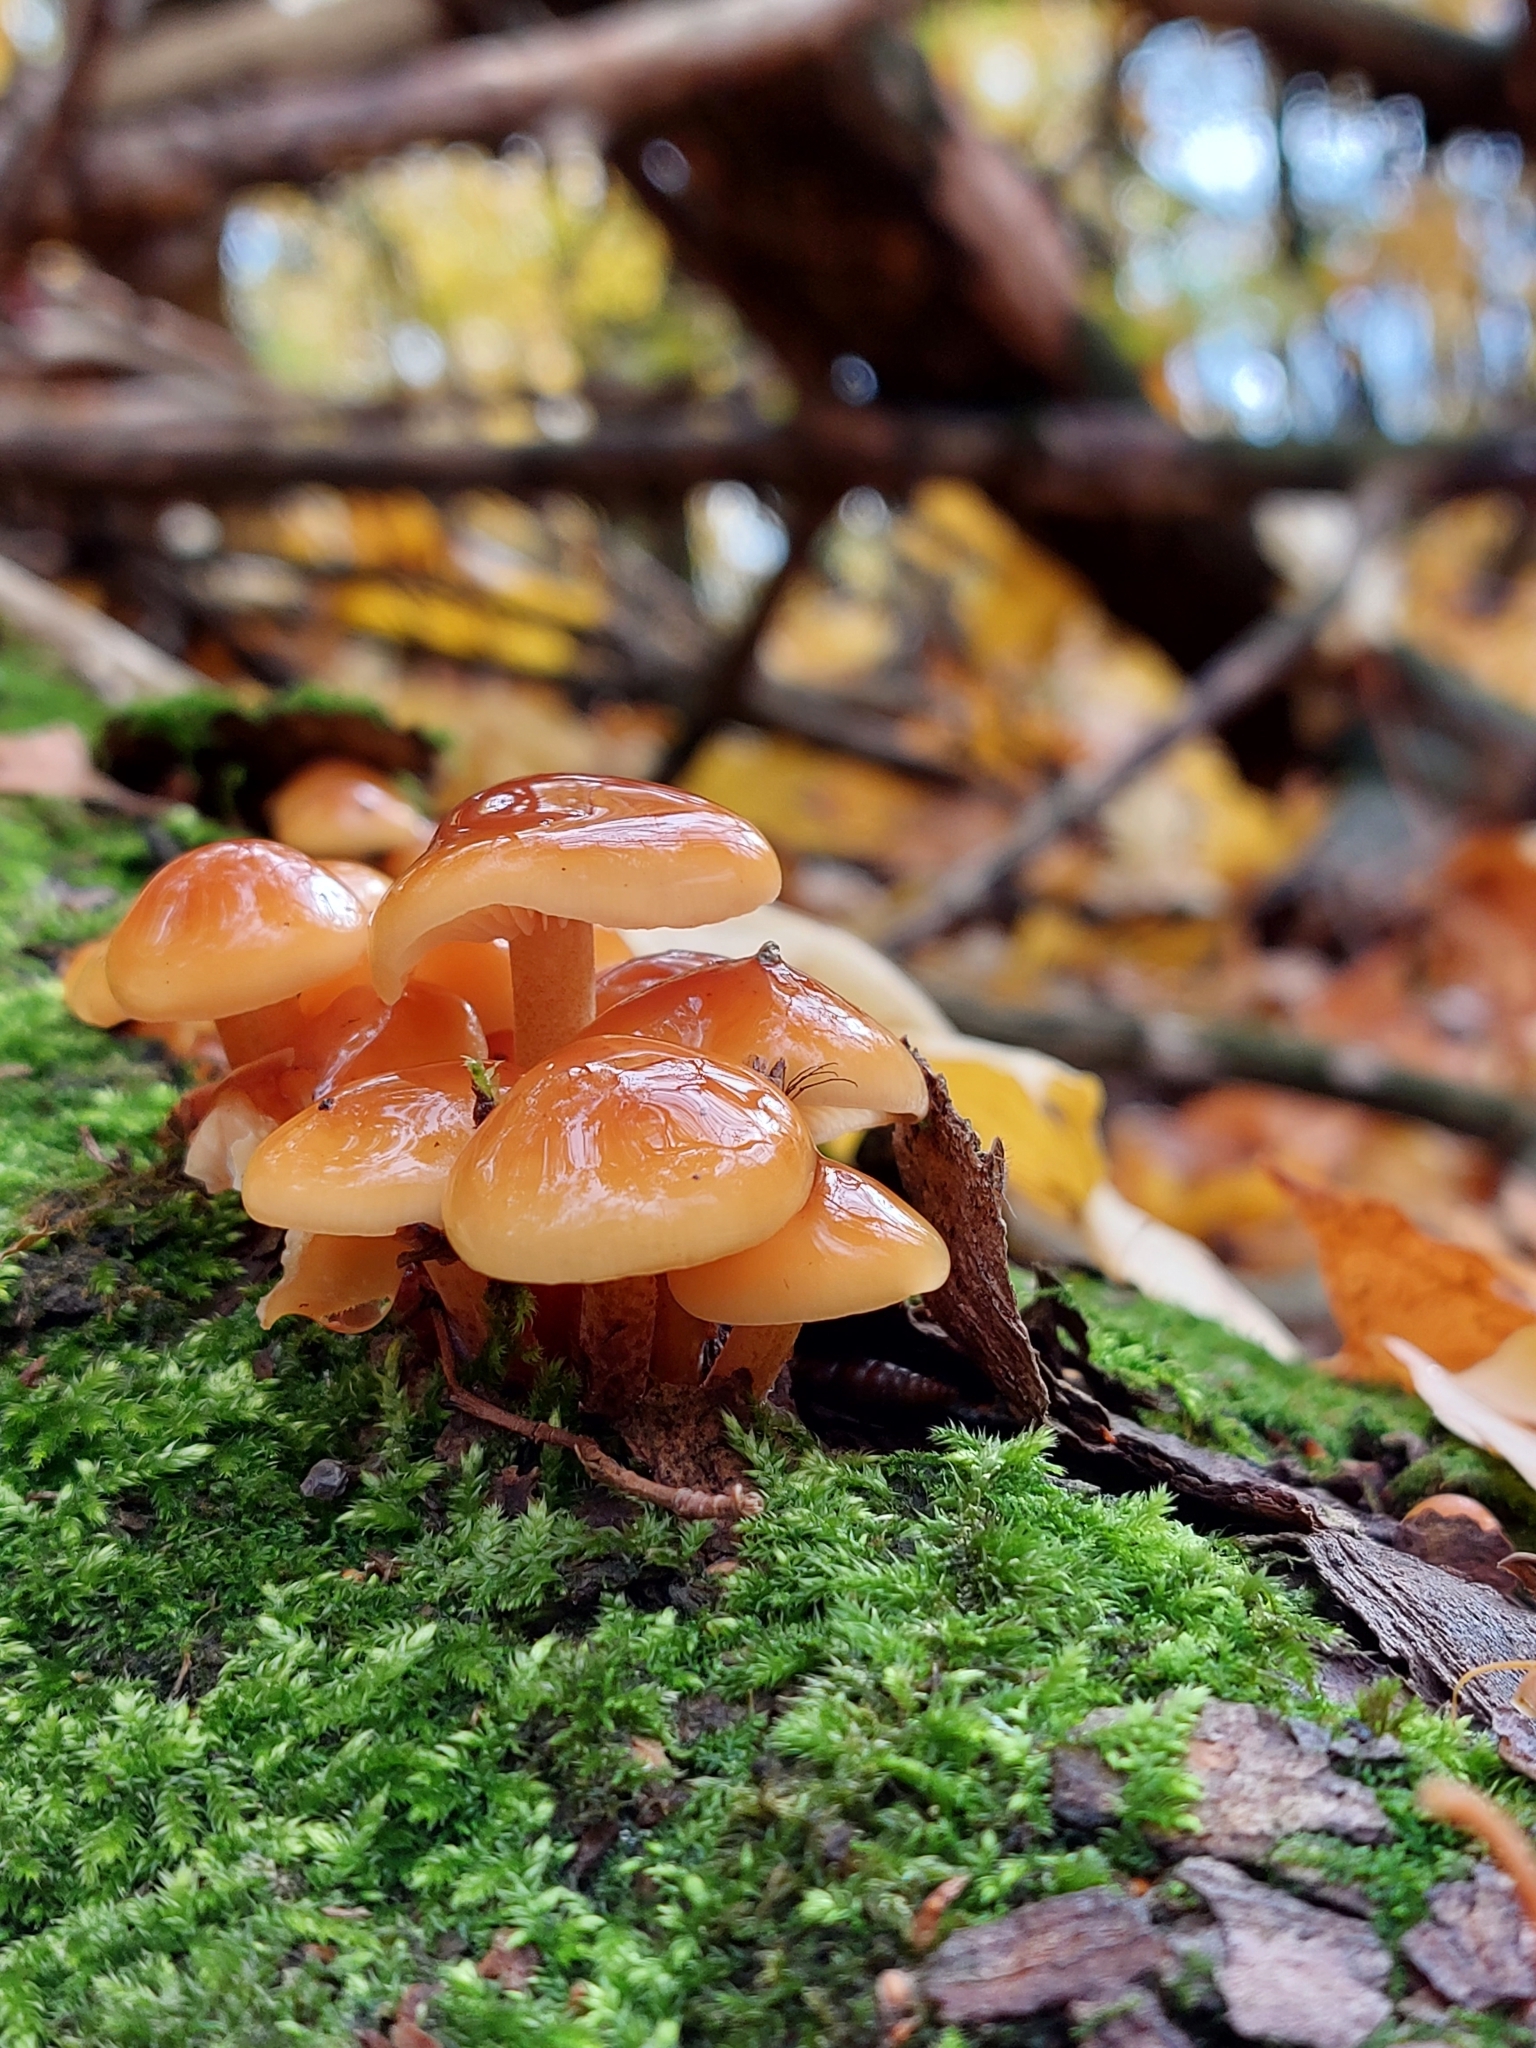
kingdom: Fungi
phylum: Basidiomycota
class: Agaricomycetes
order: Agaricales
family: Physalacriaceae
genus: Flammulina
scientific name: Flammulina
